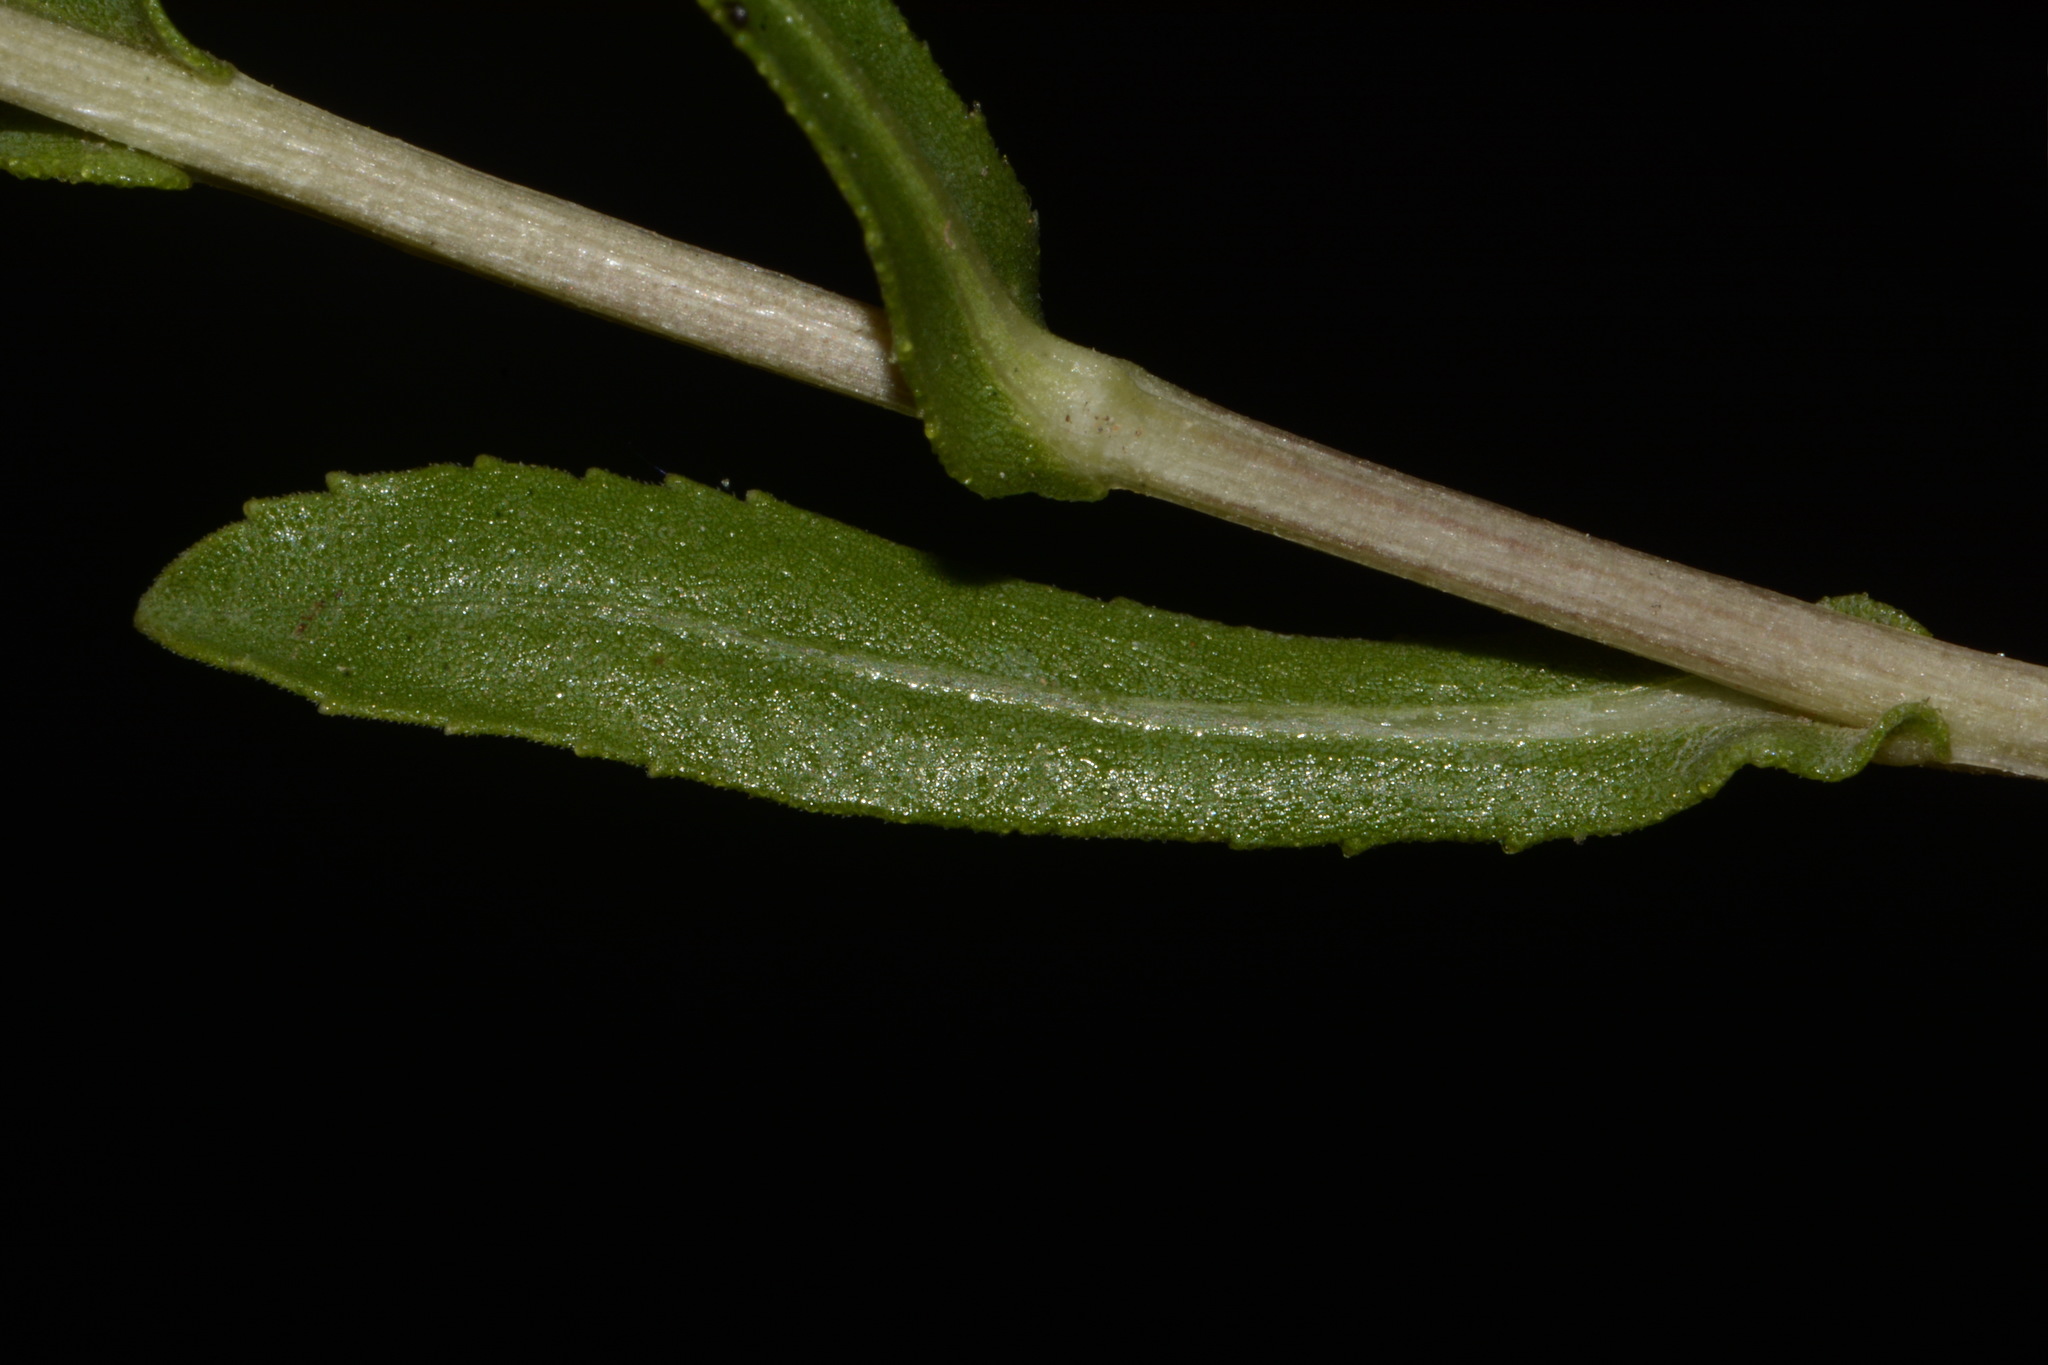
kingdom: Plantae
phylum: Tracheophyta
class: Magnoliopsida
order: Asterales
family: Asteraceae
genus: Grindelia
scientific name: Grindelia squarrosa
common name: Curly-cup gumweed
